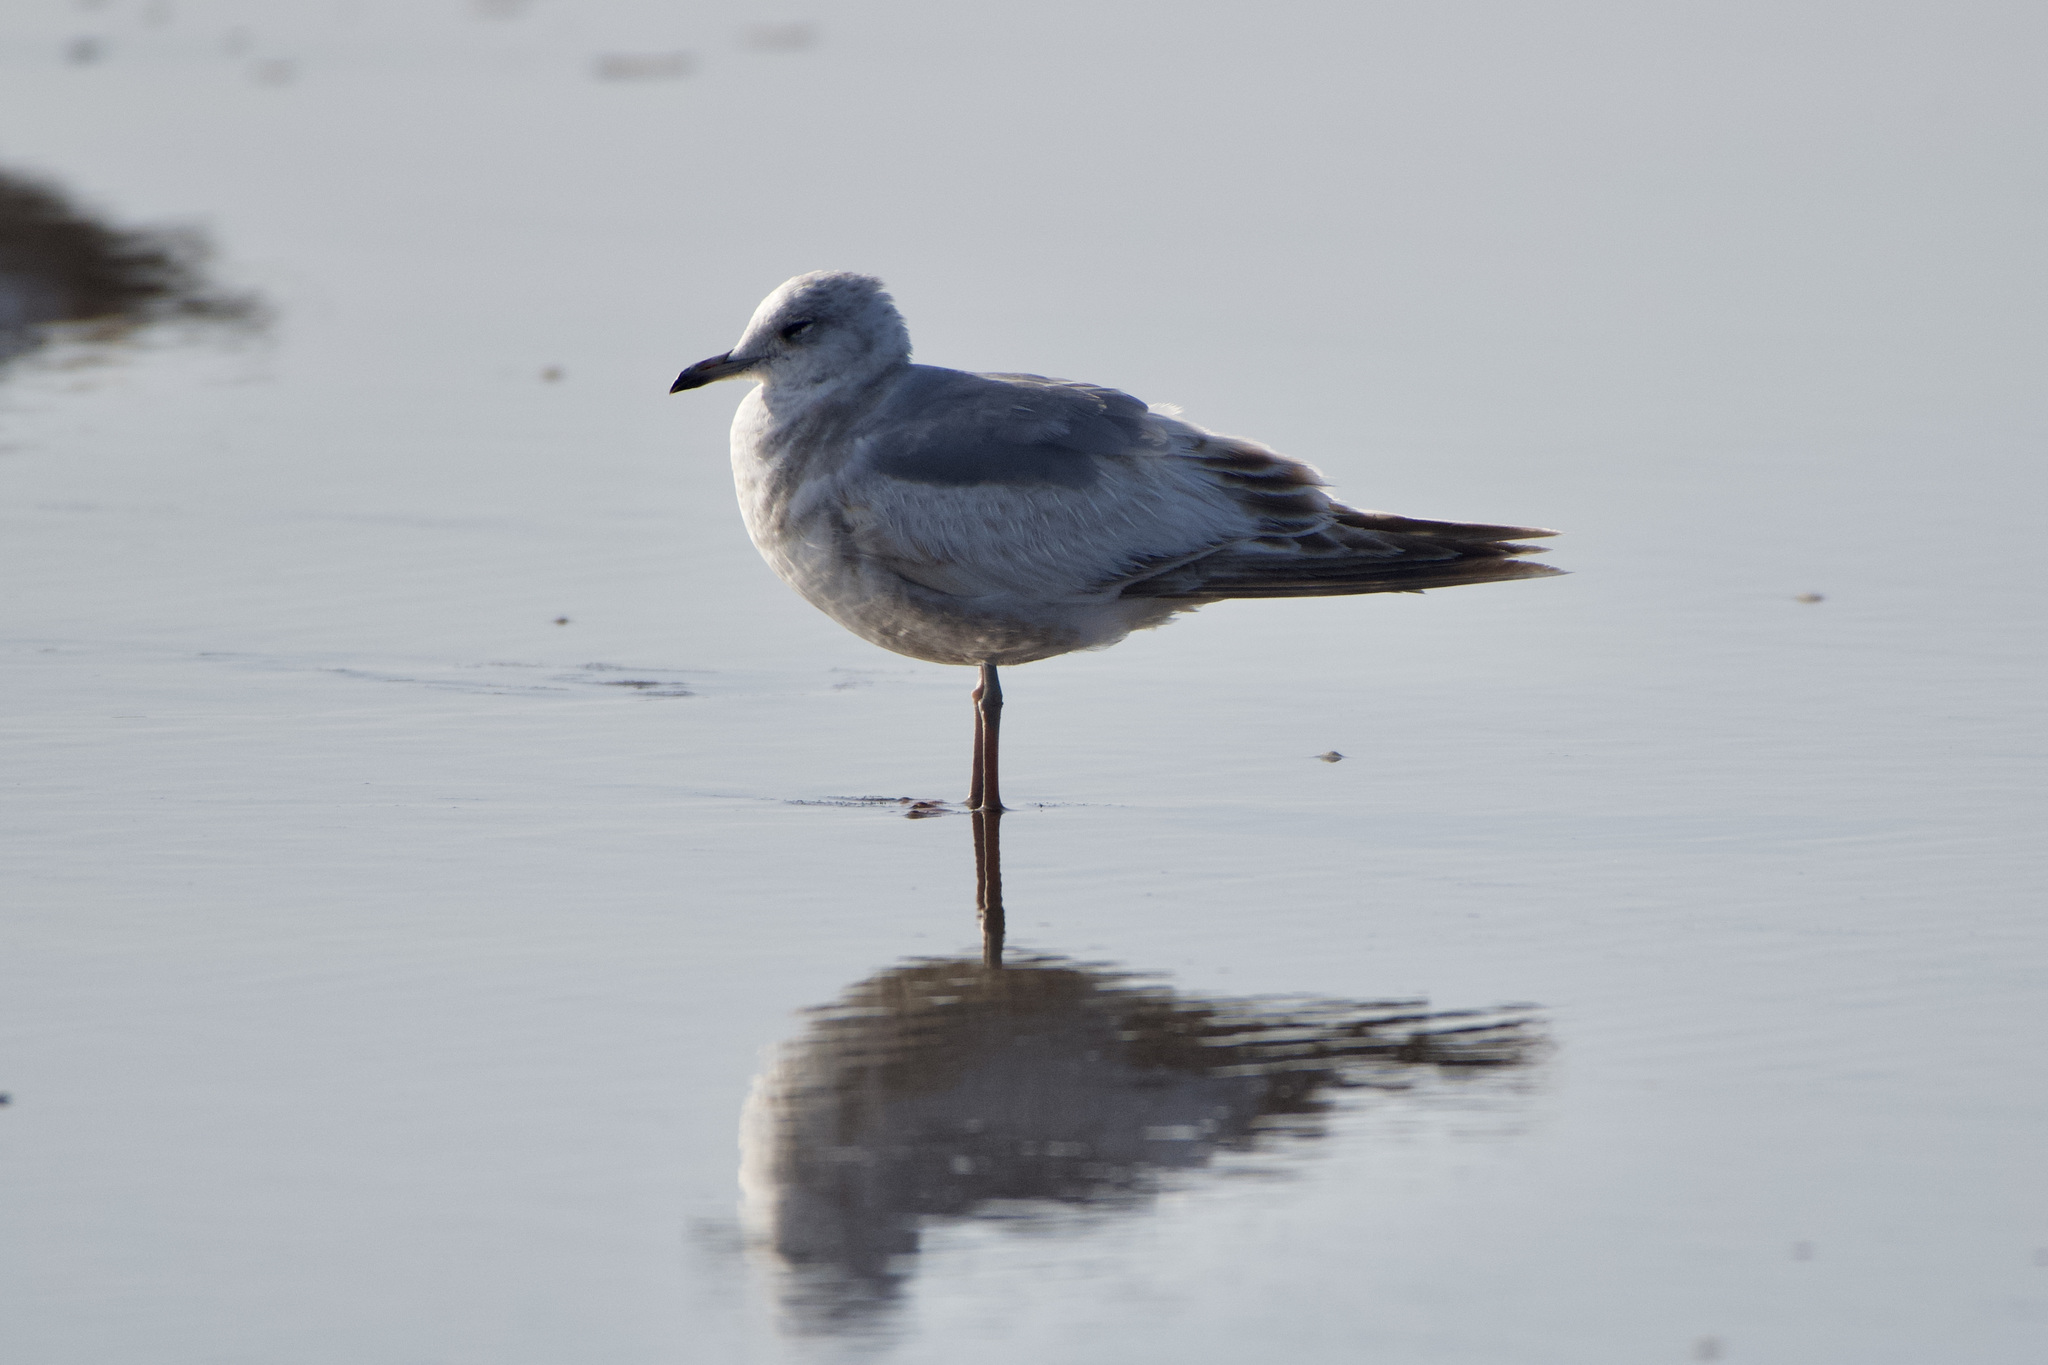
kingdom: Animalia
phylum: Chordata
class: Aves
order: Charadriiformes
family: Laridae
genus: Larus
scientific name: Larus brachyrhynchus
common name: Short-billed gull
